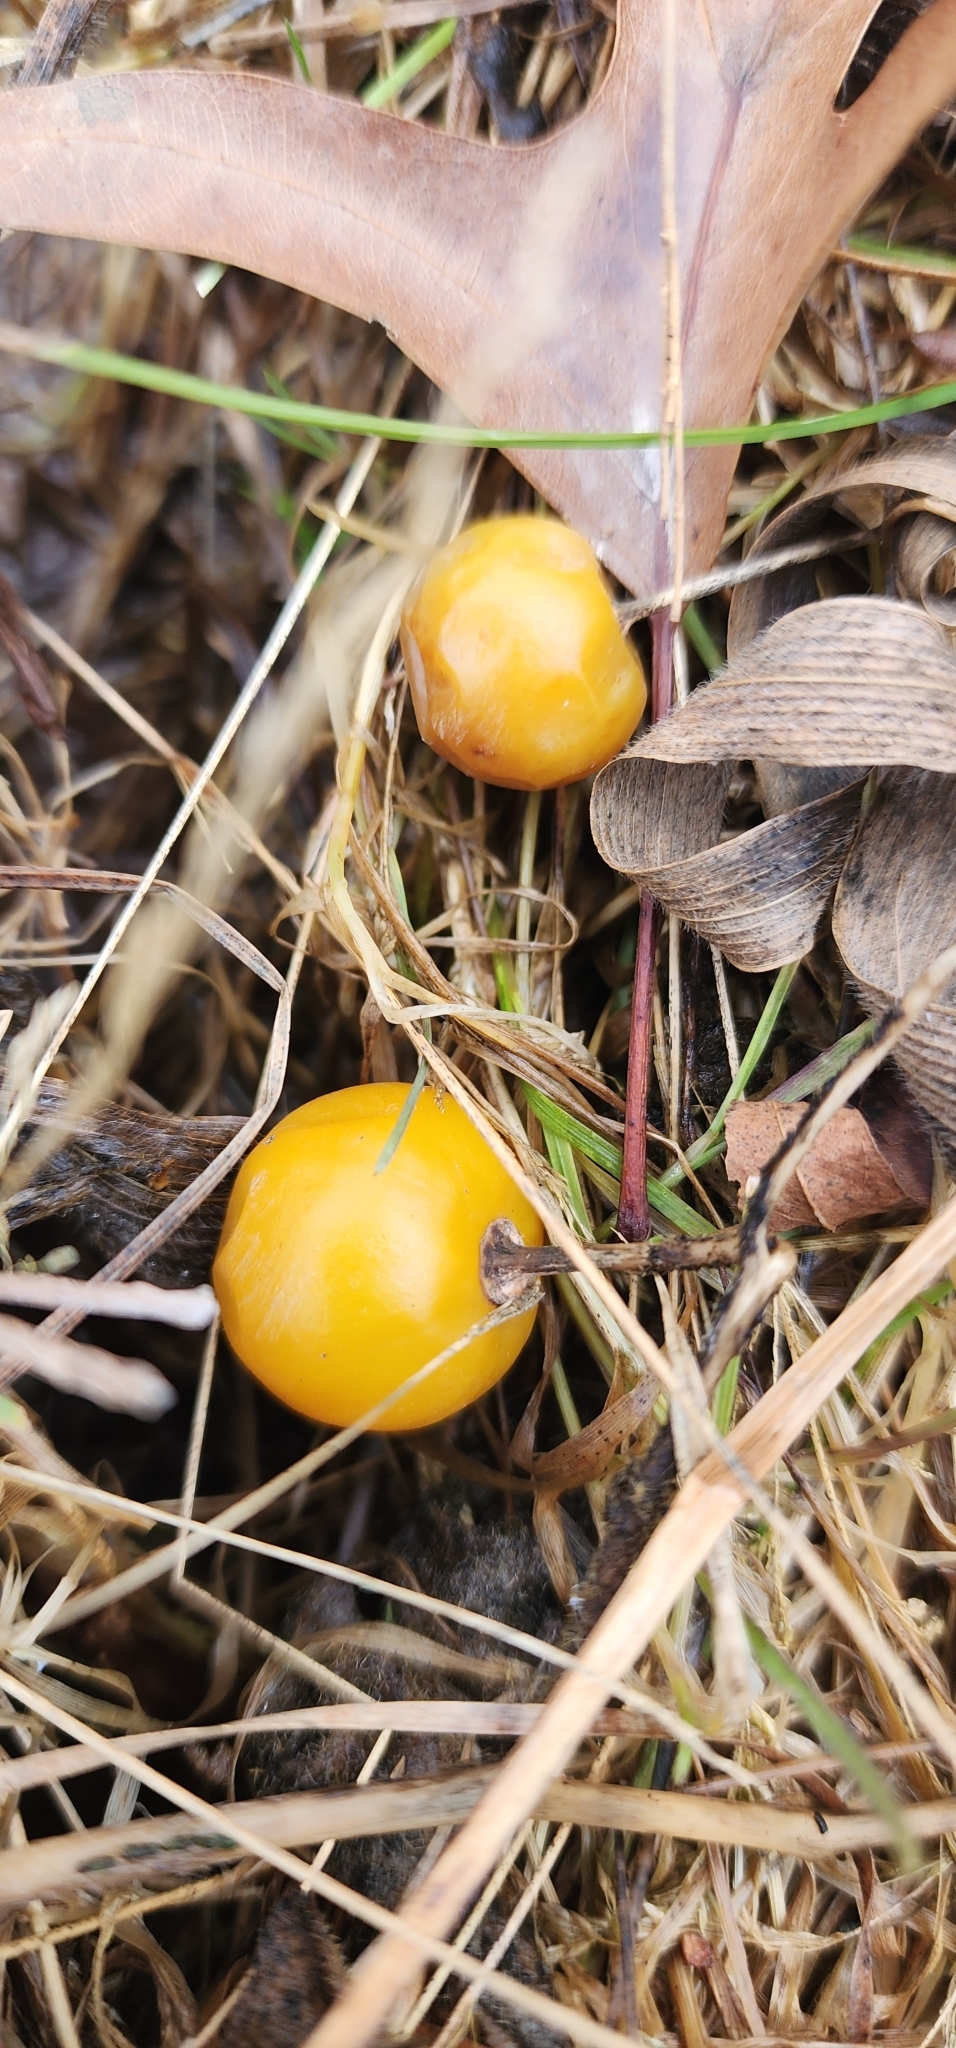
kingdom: Plantae
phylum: Tracheophyta
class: Magnoliopsida
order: Solanales
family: Solanaceae
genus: Solanum
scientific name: Solanum carolinense
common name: Horse-nettle
